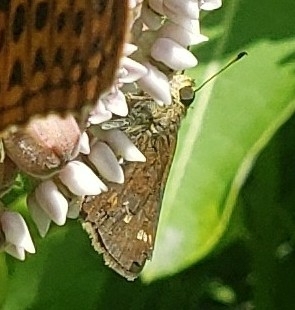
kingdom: Animalia
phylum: Arthropoda
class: Insecta
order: Lepidoptera
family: Hesperiidae
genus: Vernia
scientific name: Vernia verna
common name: Little glassywing
